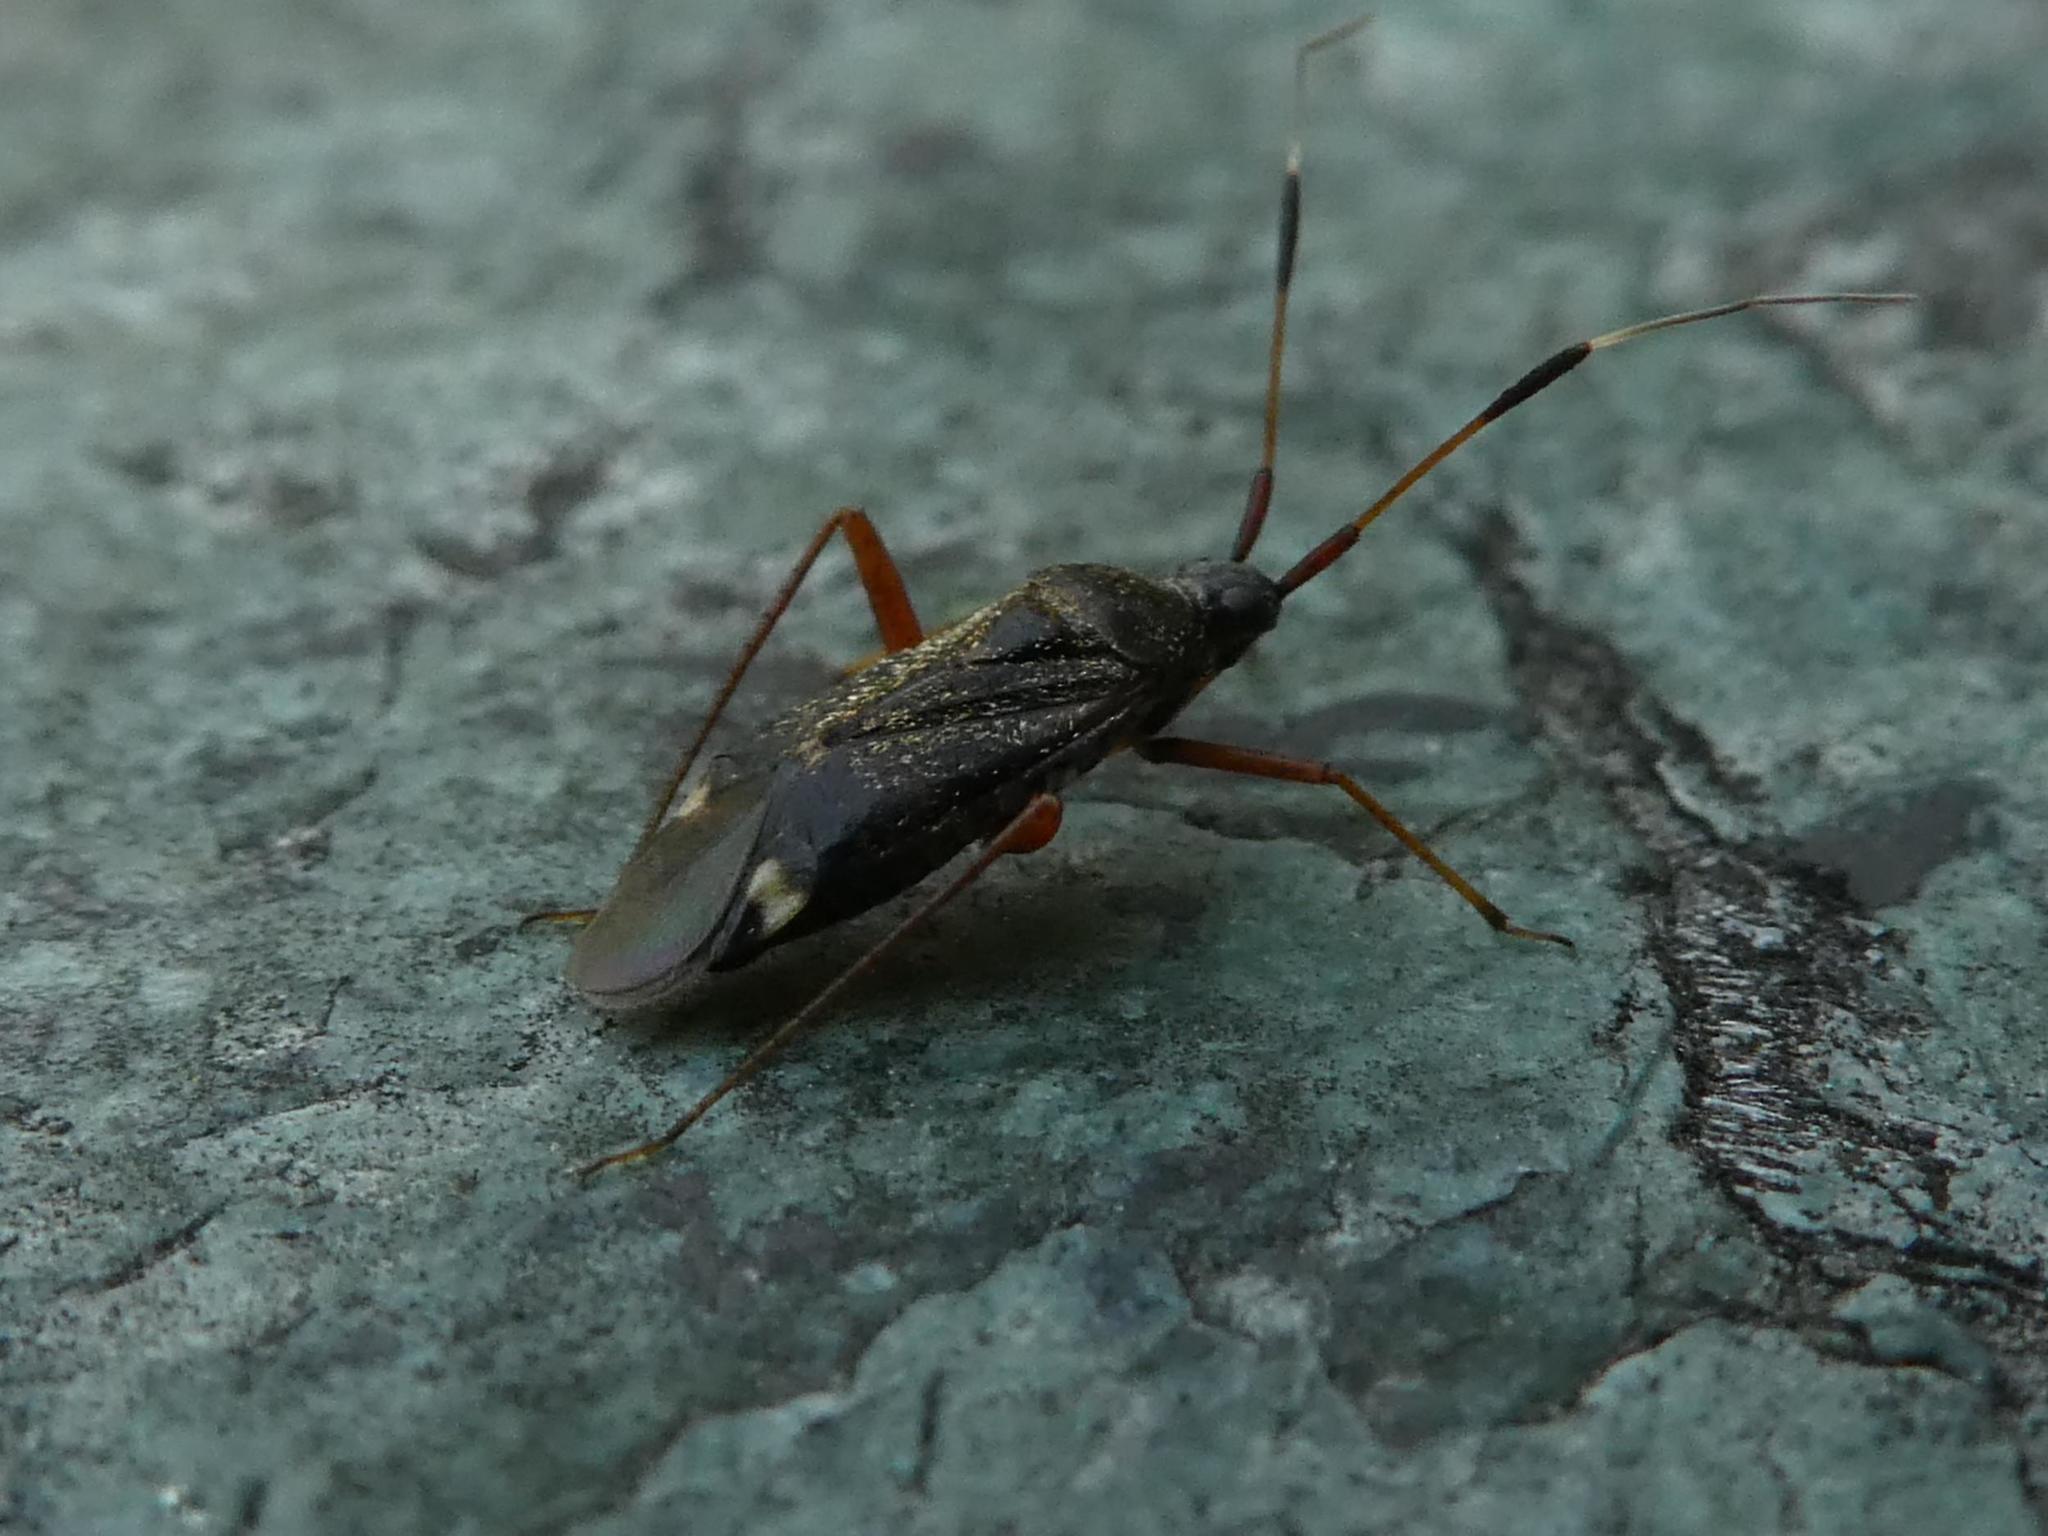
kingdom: Animalia
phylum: Arthropoda
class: Insecta
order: Hemiptera
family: Miridae
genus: Closterotomus
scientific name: Closterotomus biclavatus
